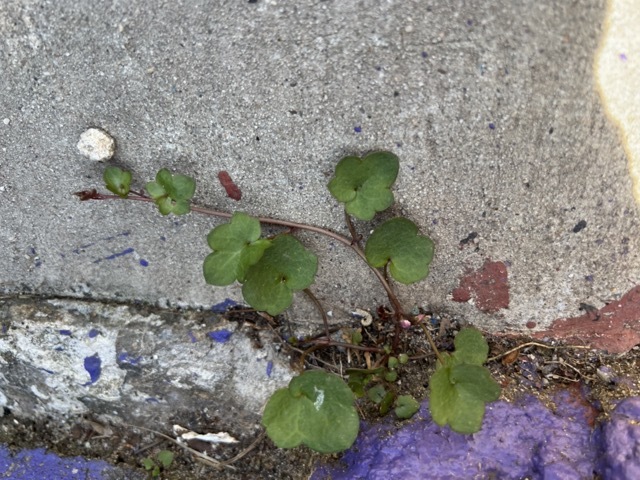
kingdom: Plantae
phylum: Tracheophyta
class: Magnoliopsida
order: Lamiales
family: Plantaginaceae
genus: Cymbalaria
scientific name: Cymbalaria muralis
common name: Ivy-leaved toadflax
